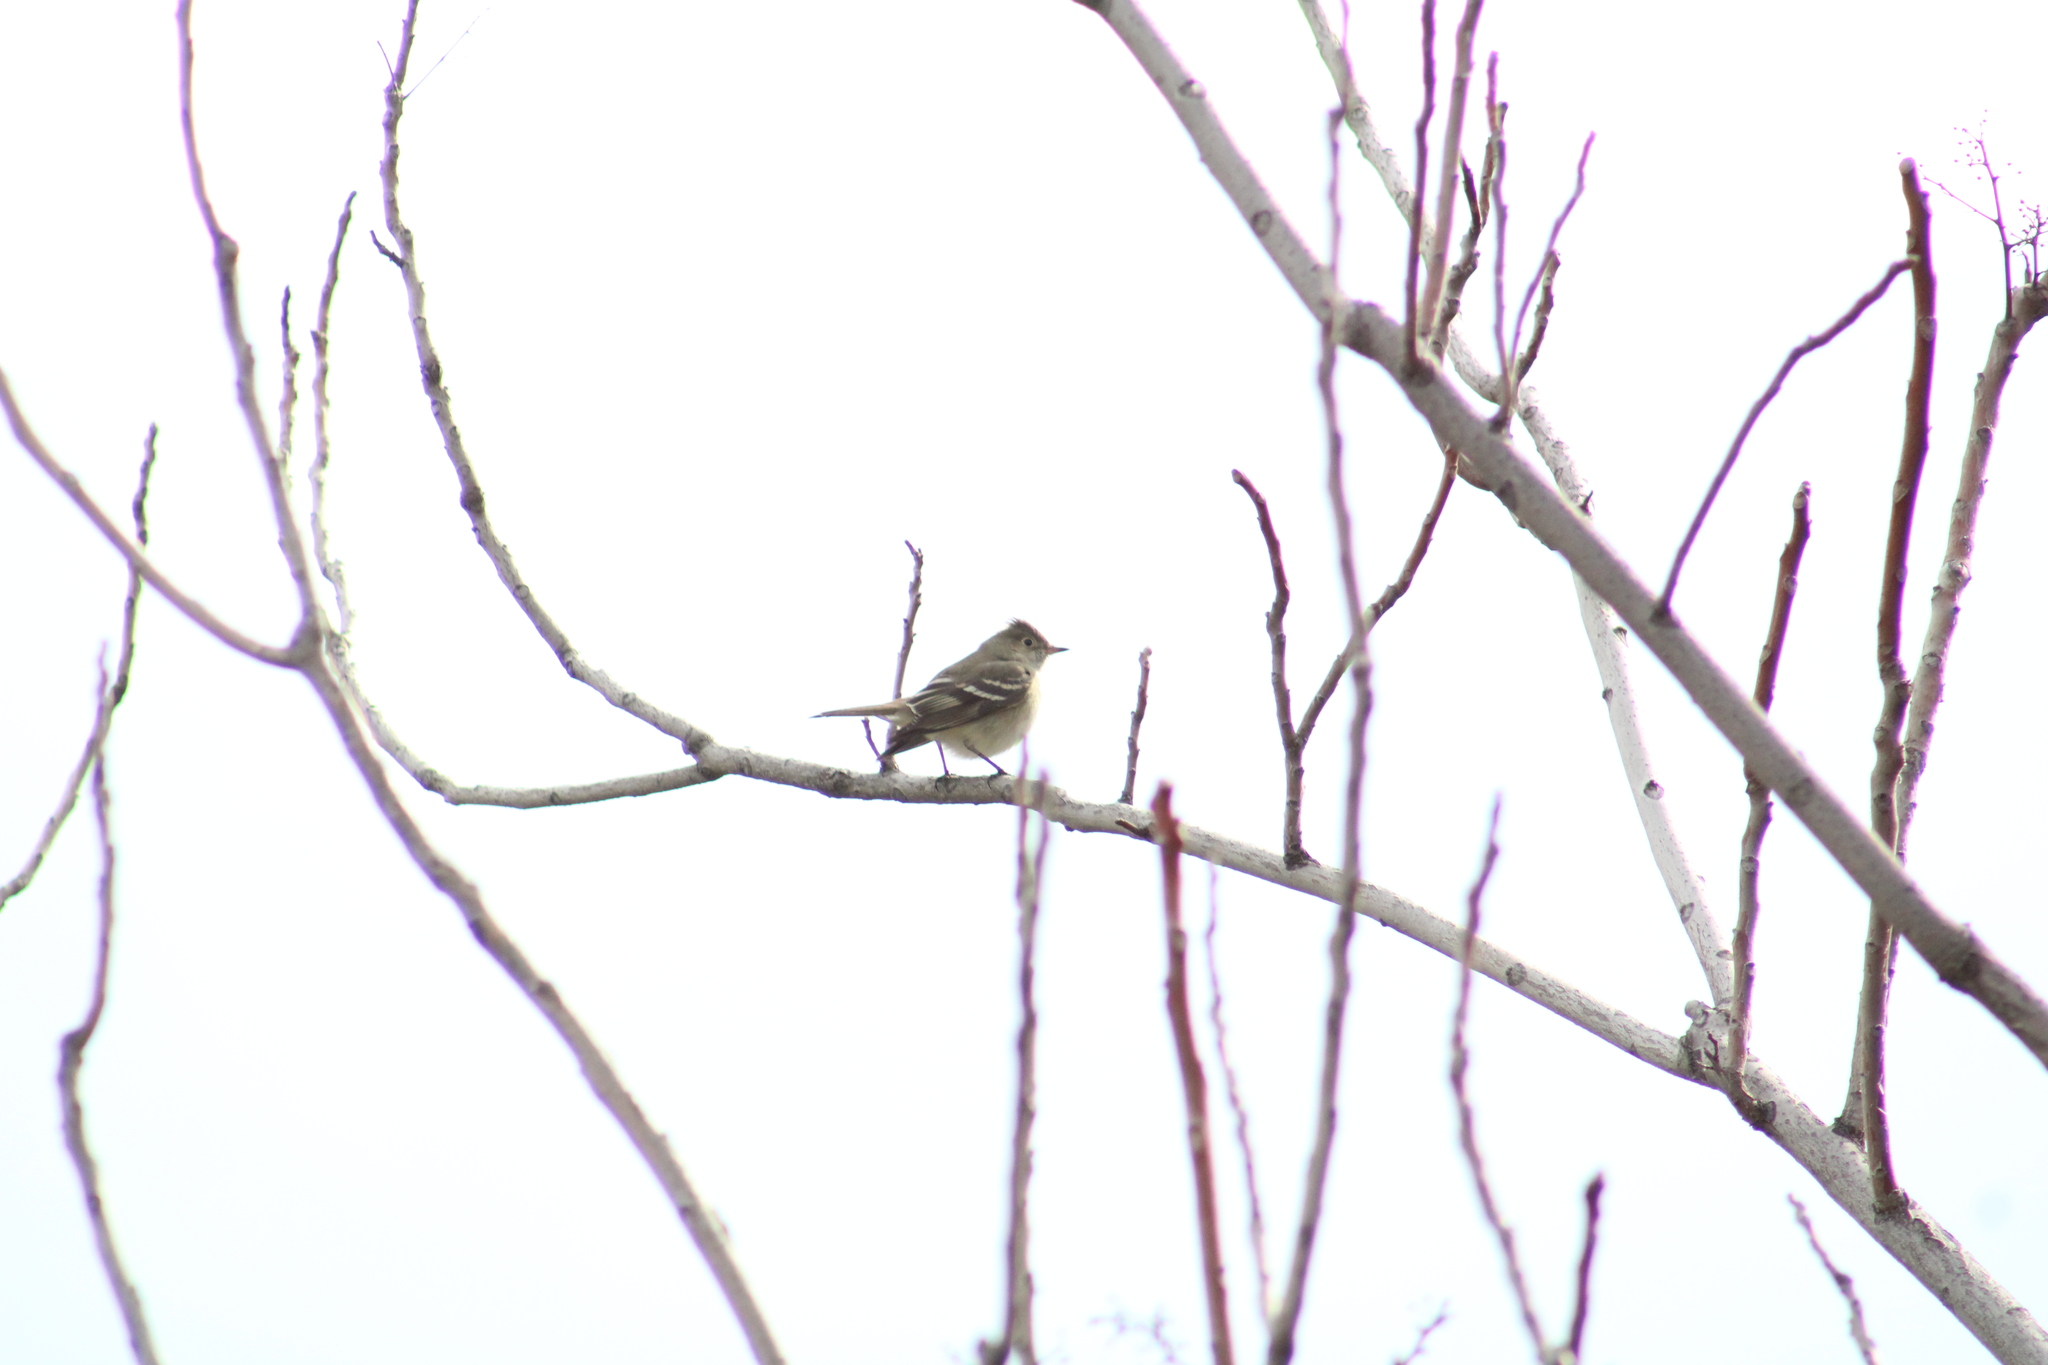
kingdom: Animalia
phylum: Chordata
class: Aves
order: Passeriformes
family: Tyrannidae
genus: Elaenia
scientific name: Elaenia albiceps
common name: White-crested elaenia
